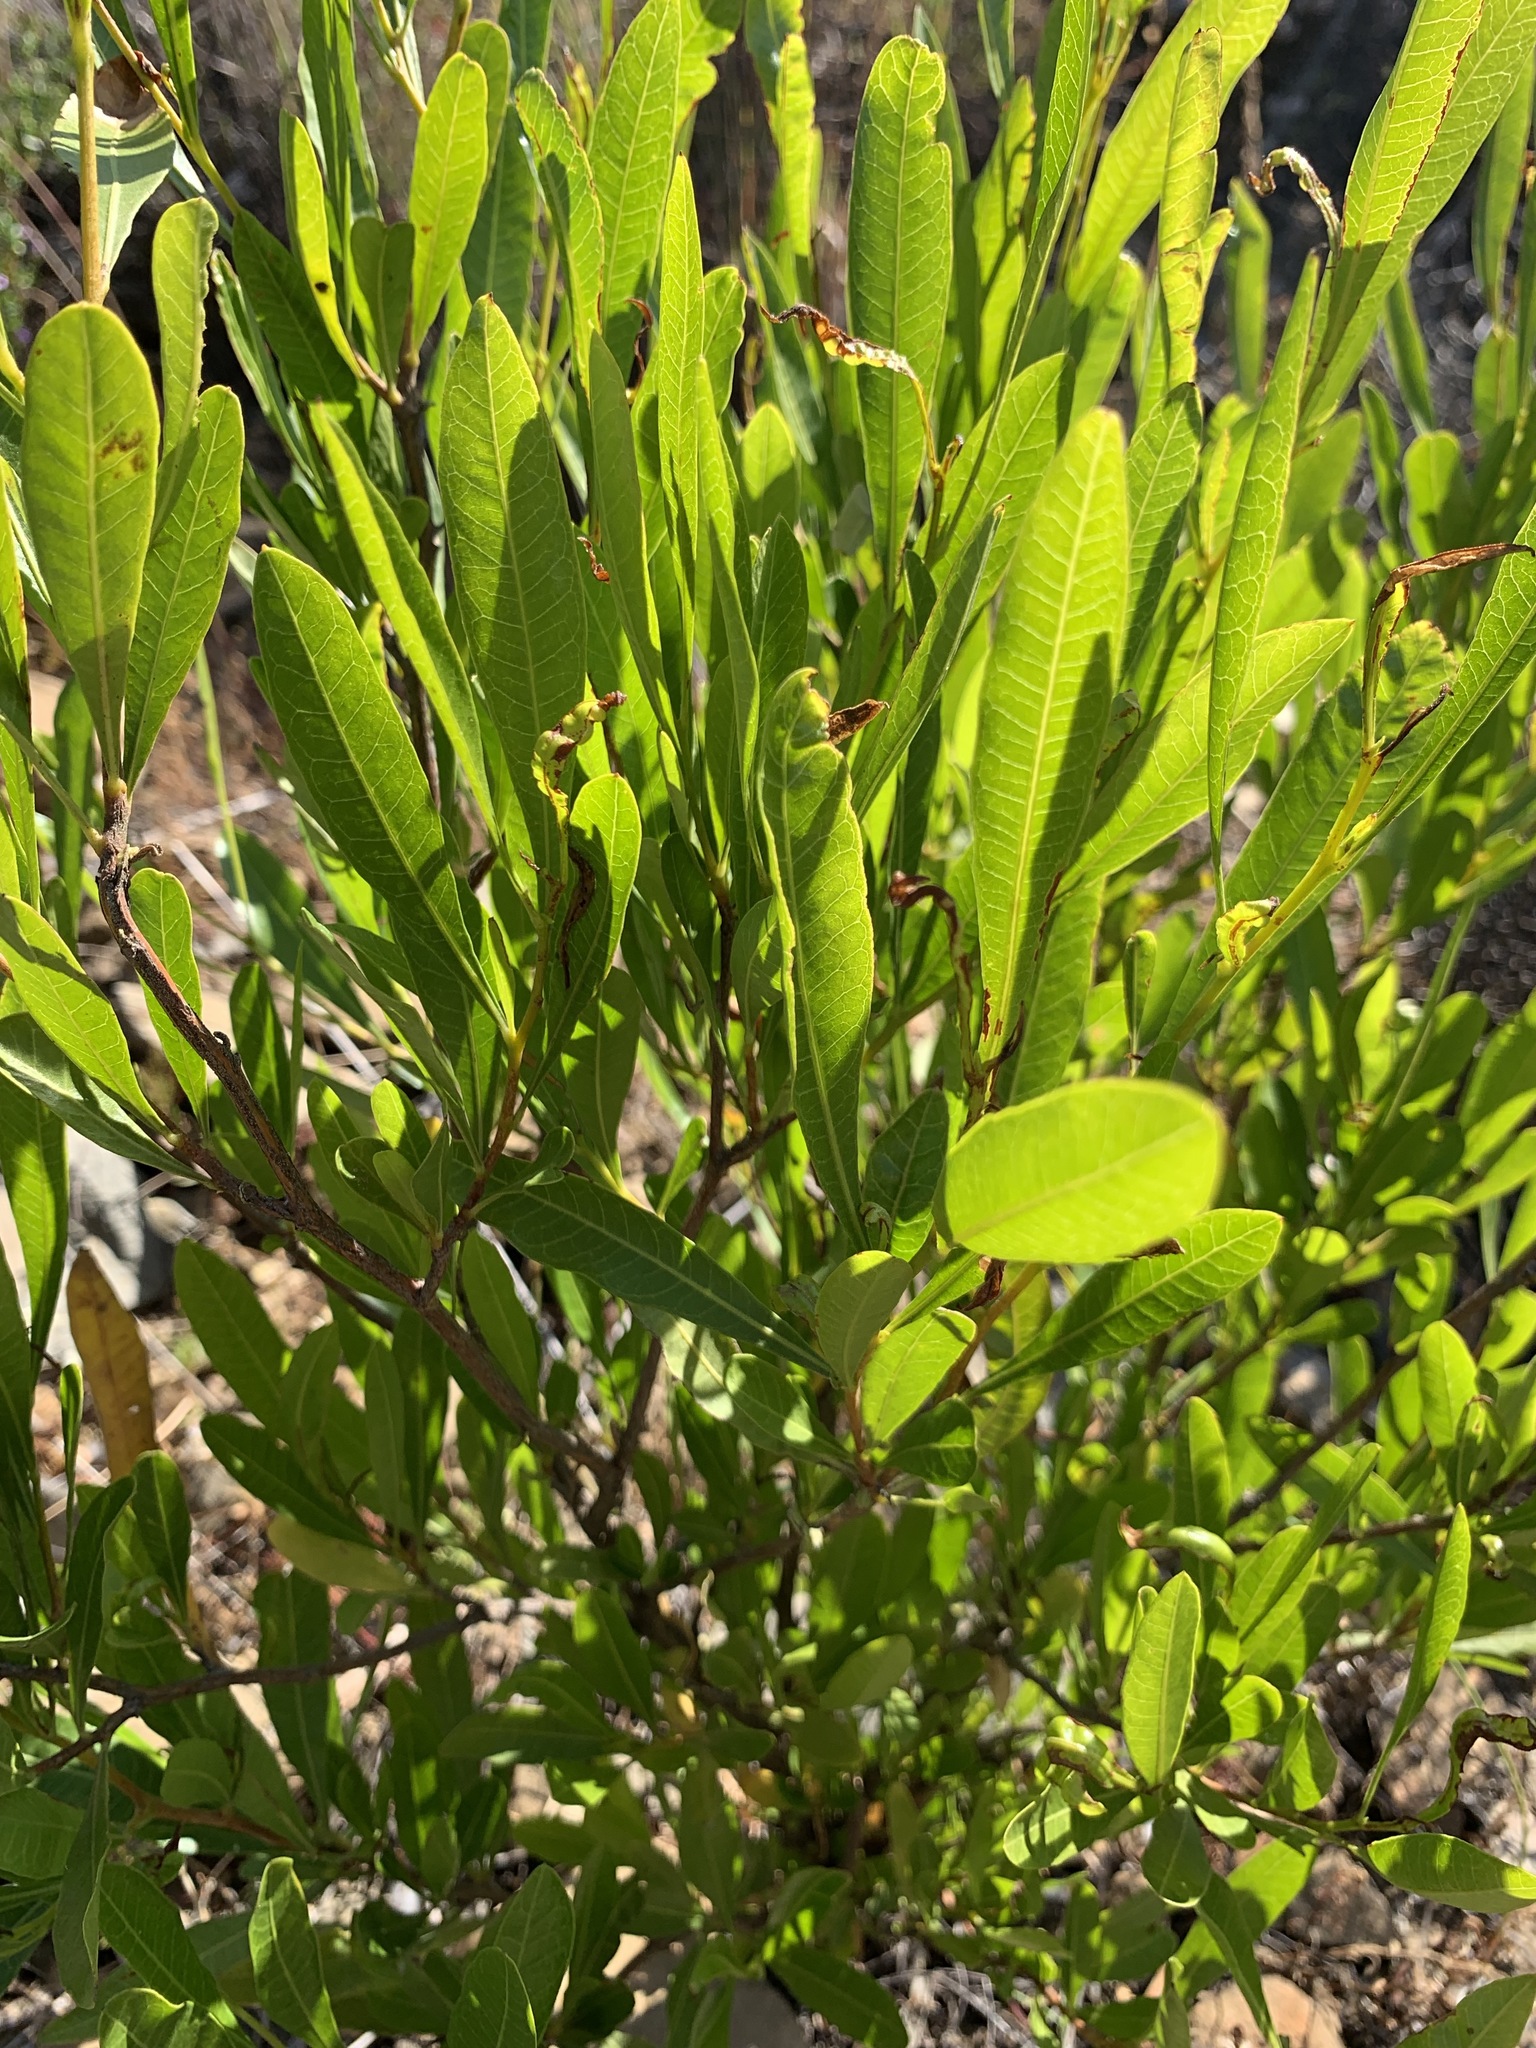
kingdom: Plantae
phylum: Tracheophyta
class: Magnoliopsida
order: Sapindales
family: Sapindaceae
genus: Dodonaea
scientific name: Dodonaea viscosa
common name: Hopbush
